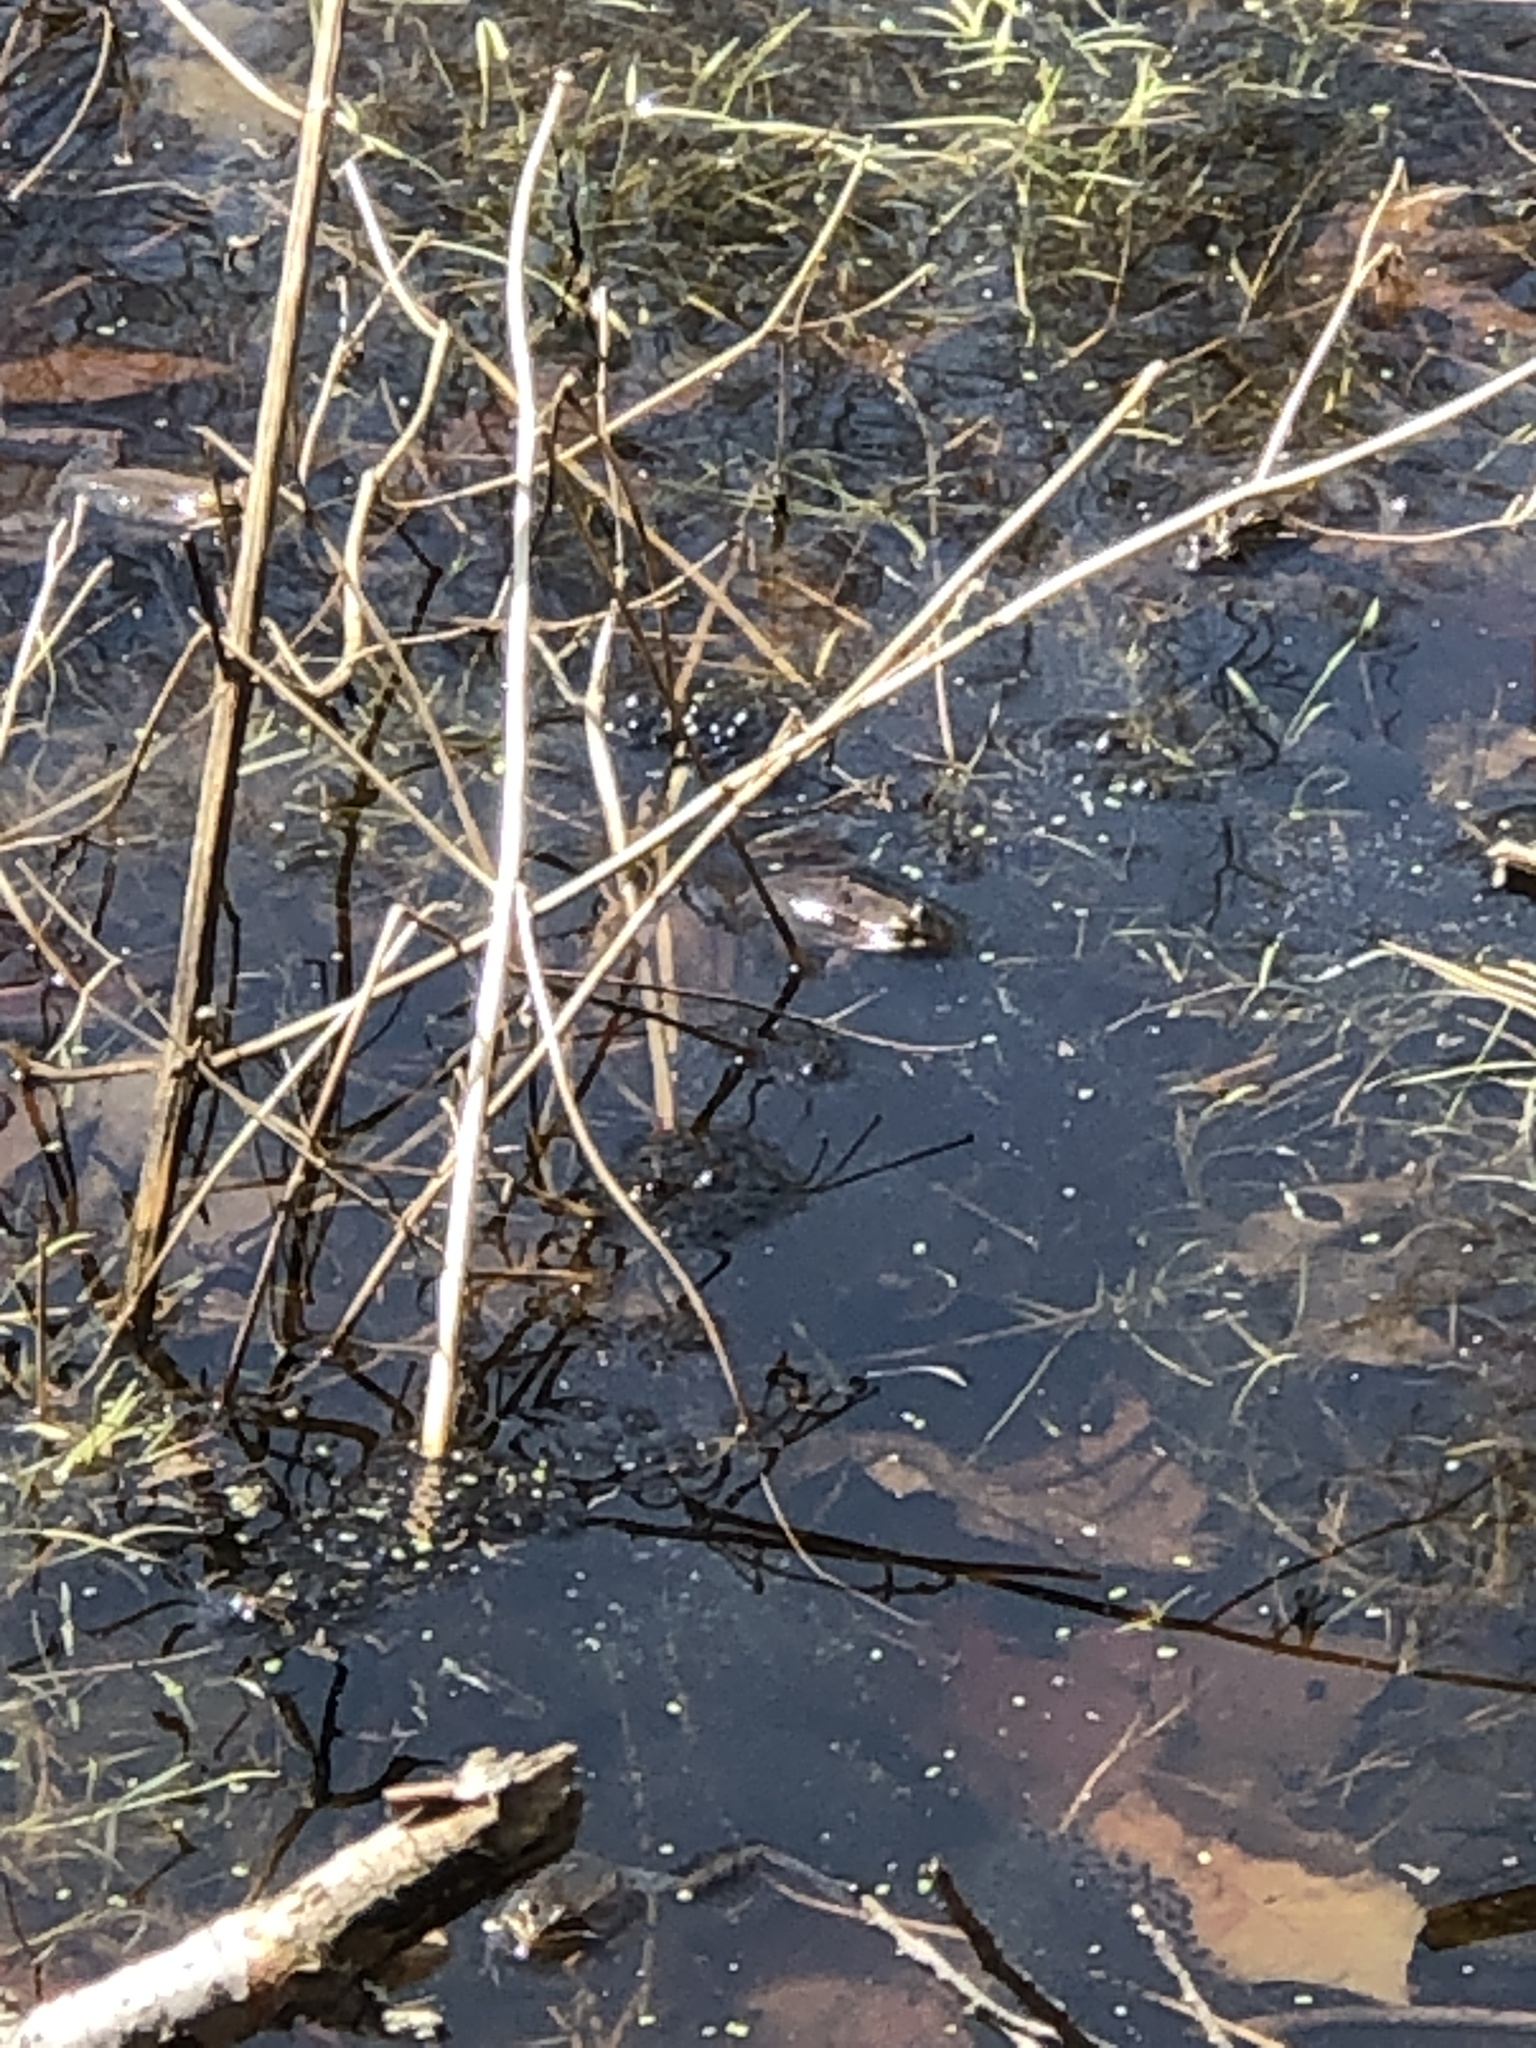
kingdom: Animalia
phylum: Chordata
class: Amphibia
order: Anura
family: Ranidae
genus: Lithobates
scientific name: Lithobates sylvaticus
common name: Wood frog
